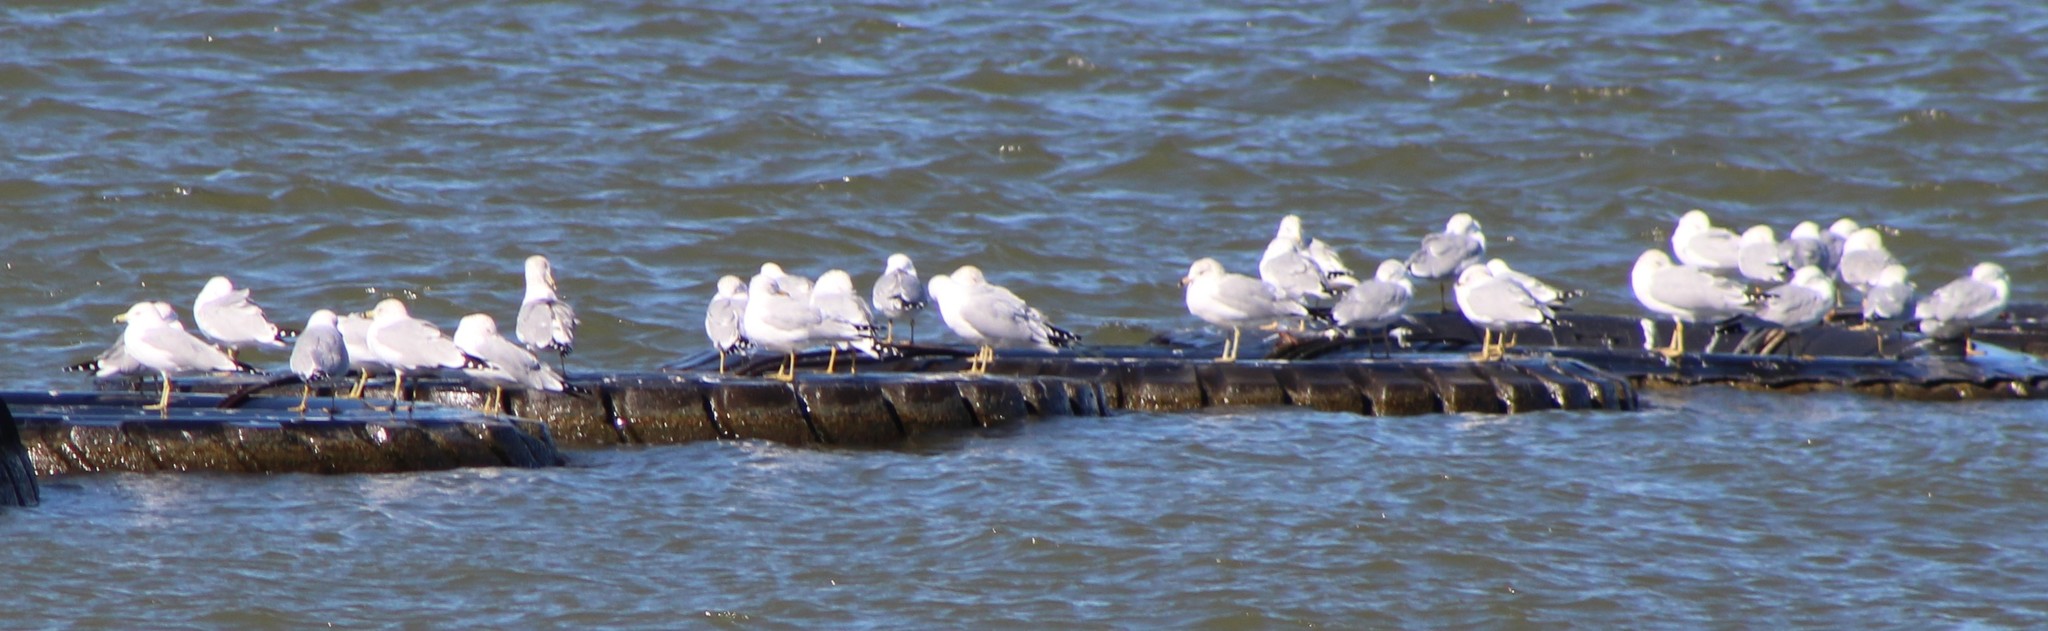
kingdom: Animalia
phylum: Chordata
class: Aves
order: Charadriiformes
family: Laridae
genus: Larus
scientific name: Larus delawarensis
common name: Ring-billed gull
